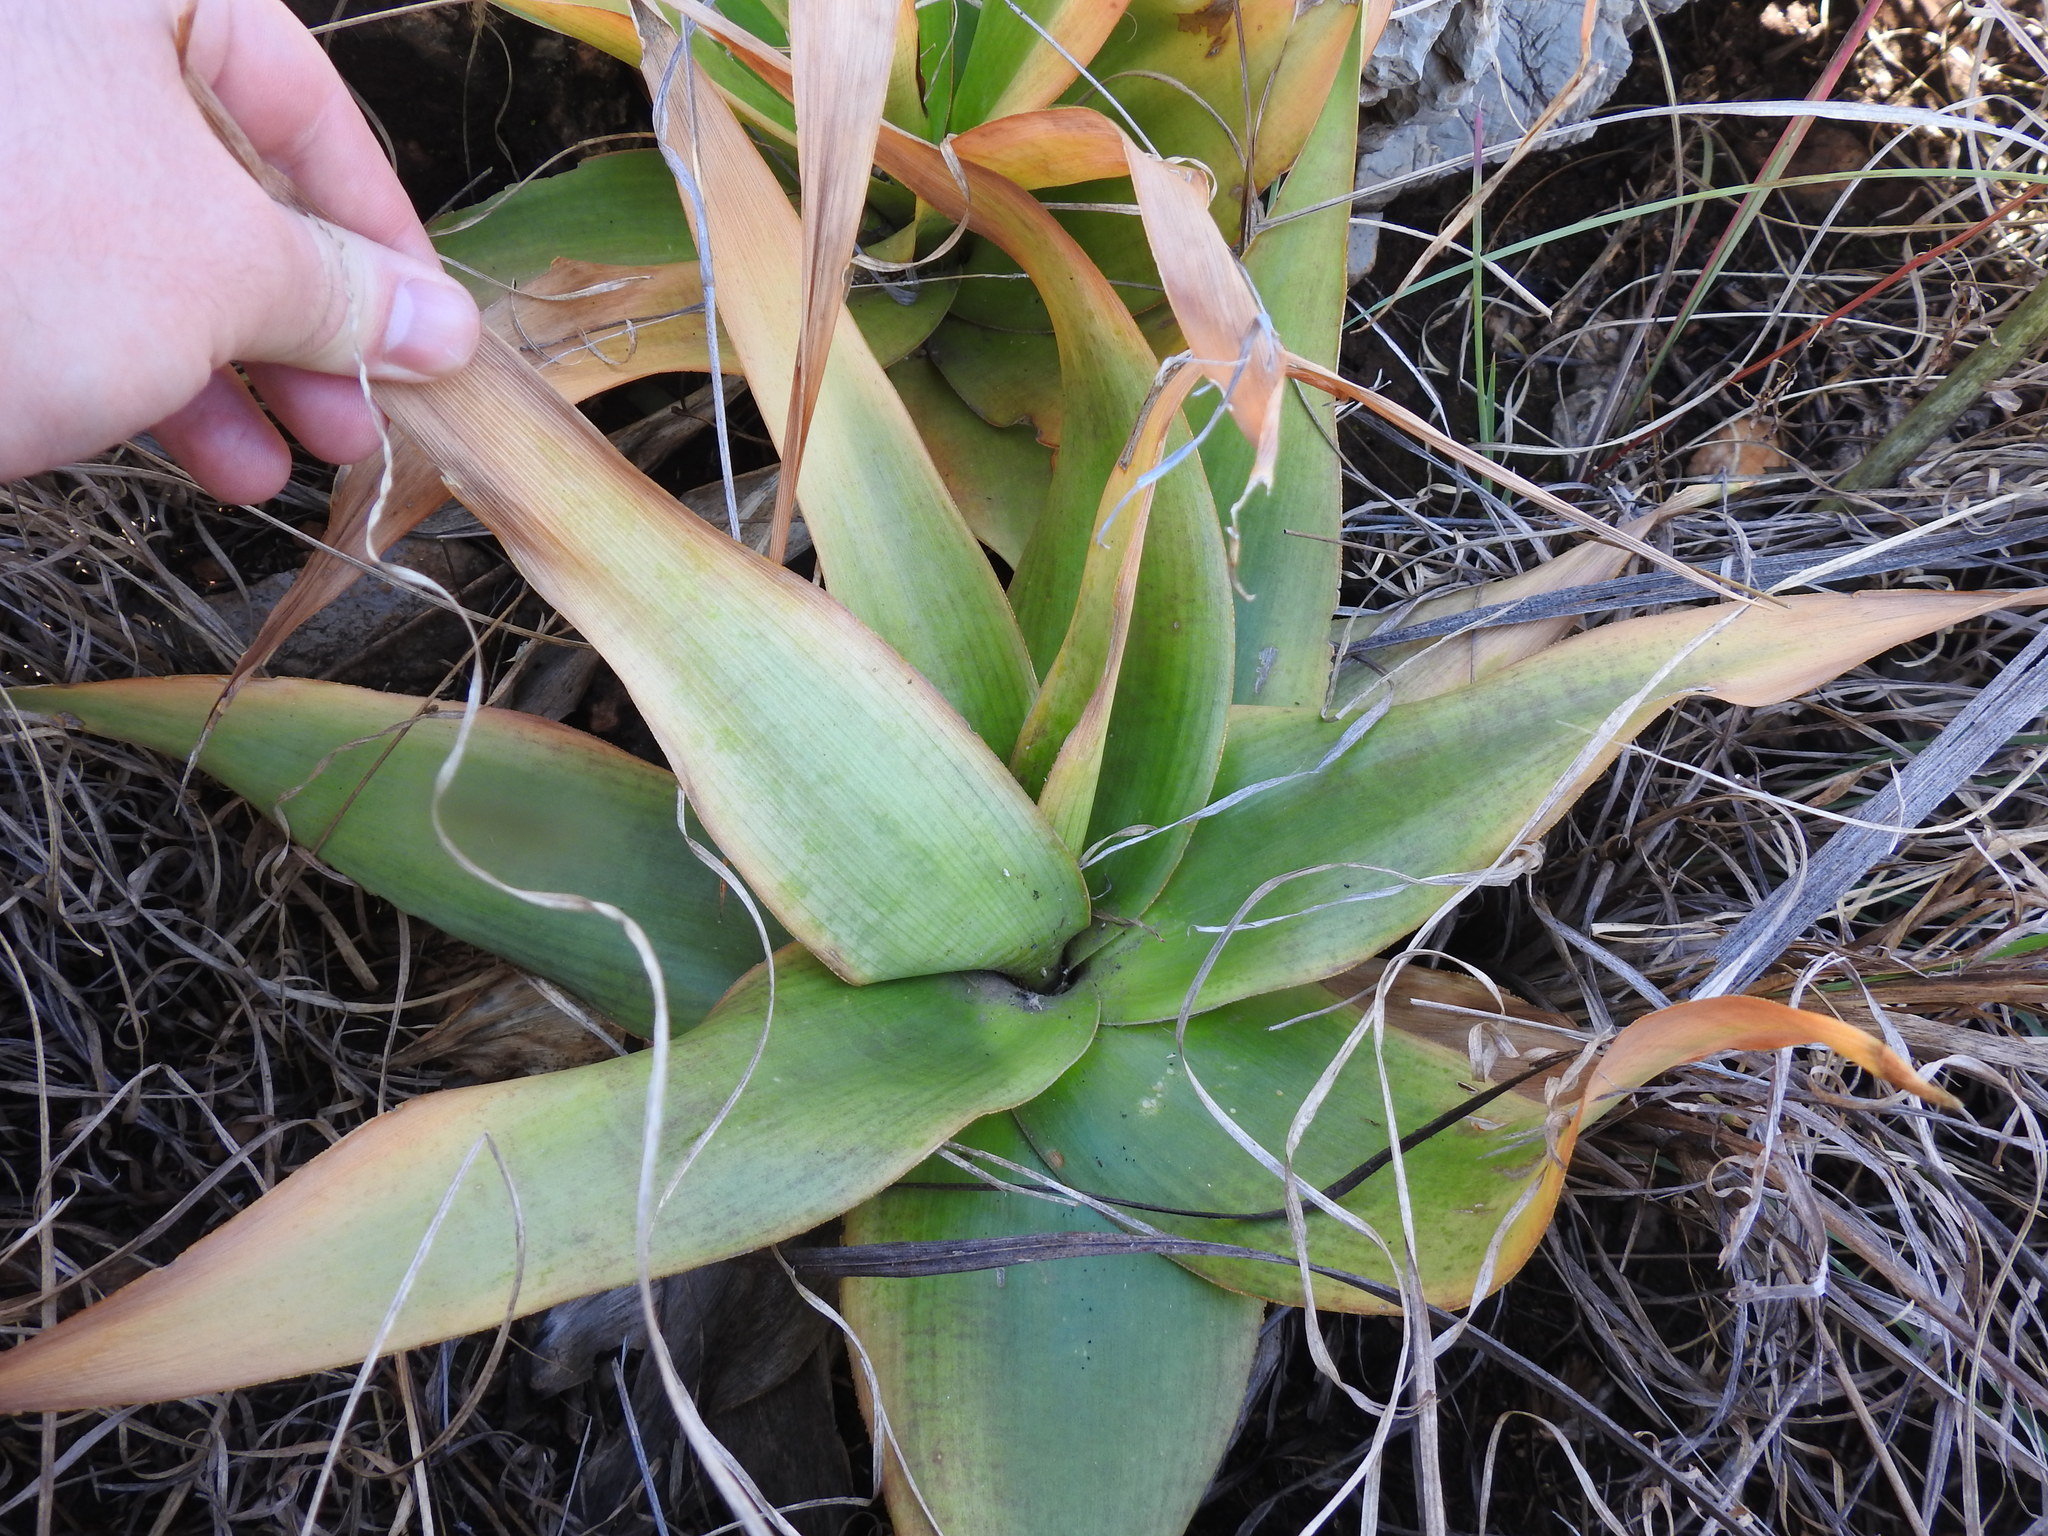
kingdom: Plantae
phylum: Tracheophyta
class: Liliopsida
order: Asparagales
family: Asparagaceae
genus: Ledebouria
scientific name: Ledebouria revoluta
